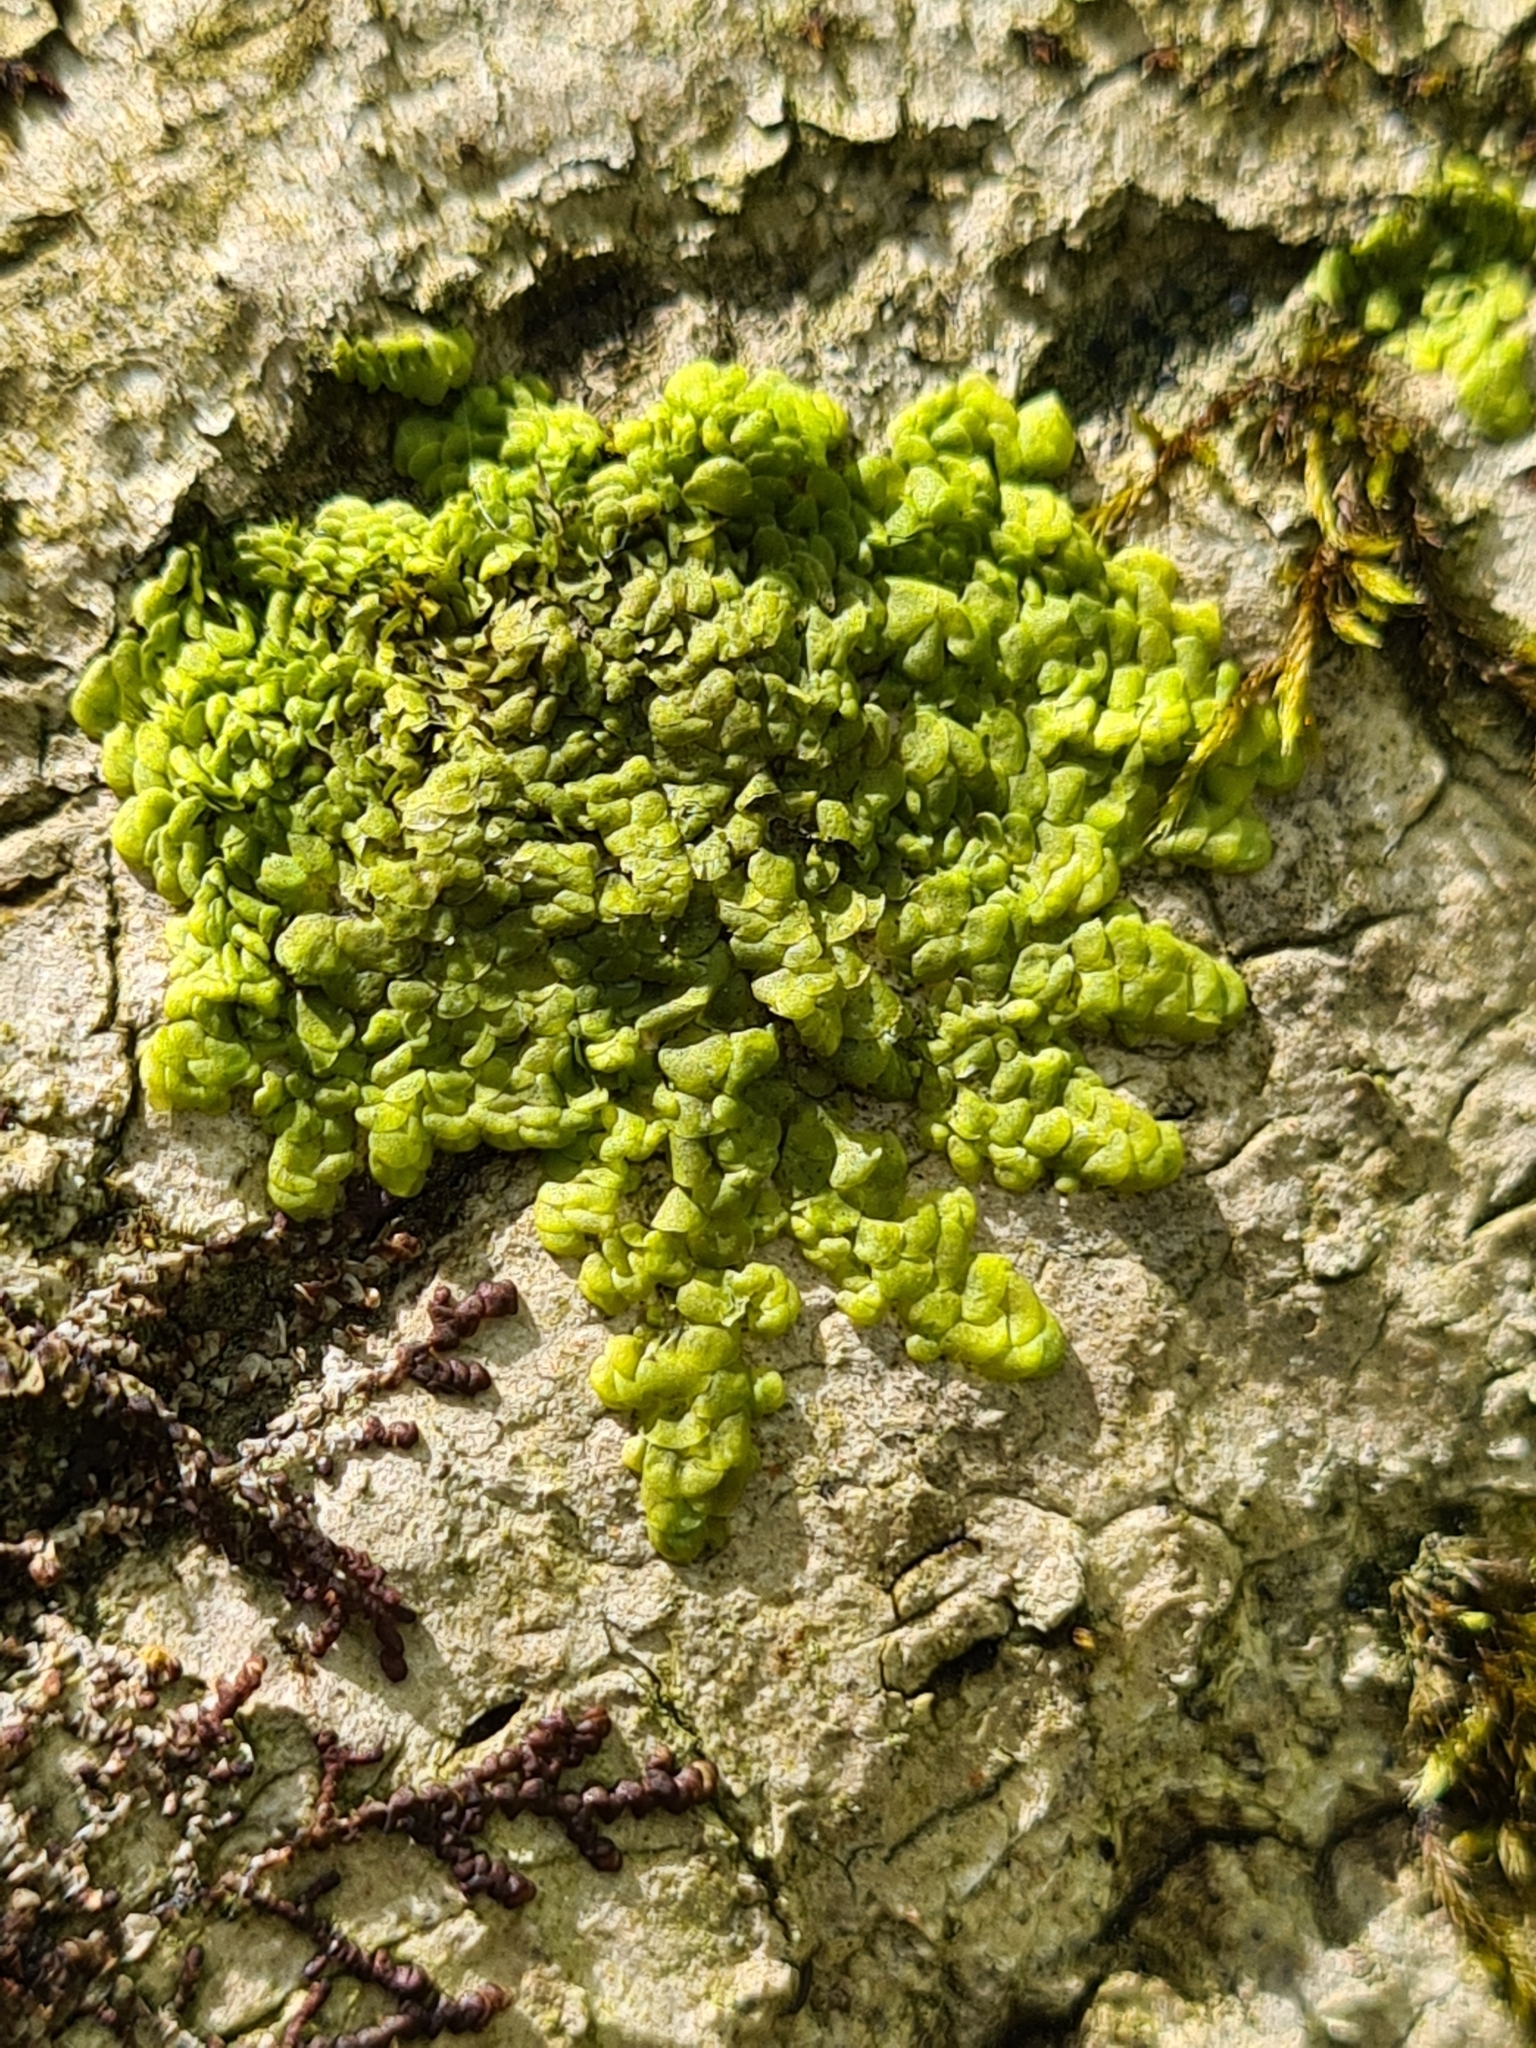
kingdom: Plantae
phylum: Marchantiophyta
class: Jungermanniopsida
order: Porellales
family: Radulaceae
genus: Radula
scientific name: Radula complanata
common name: Flat-leaved scalewort
